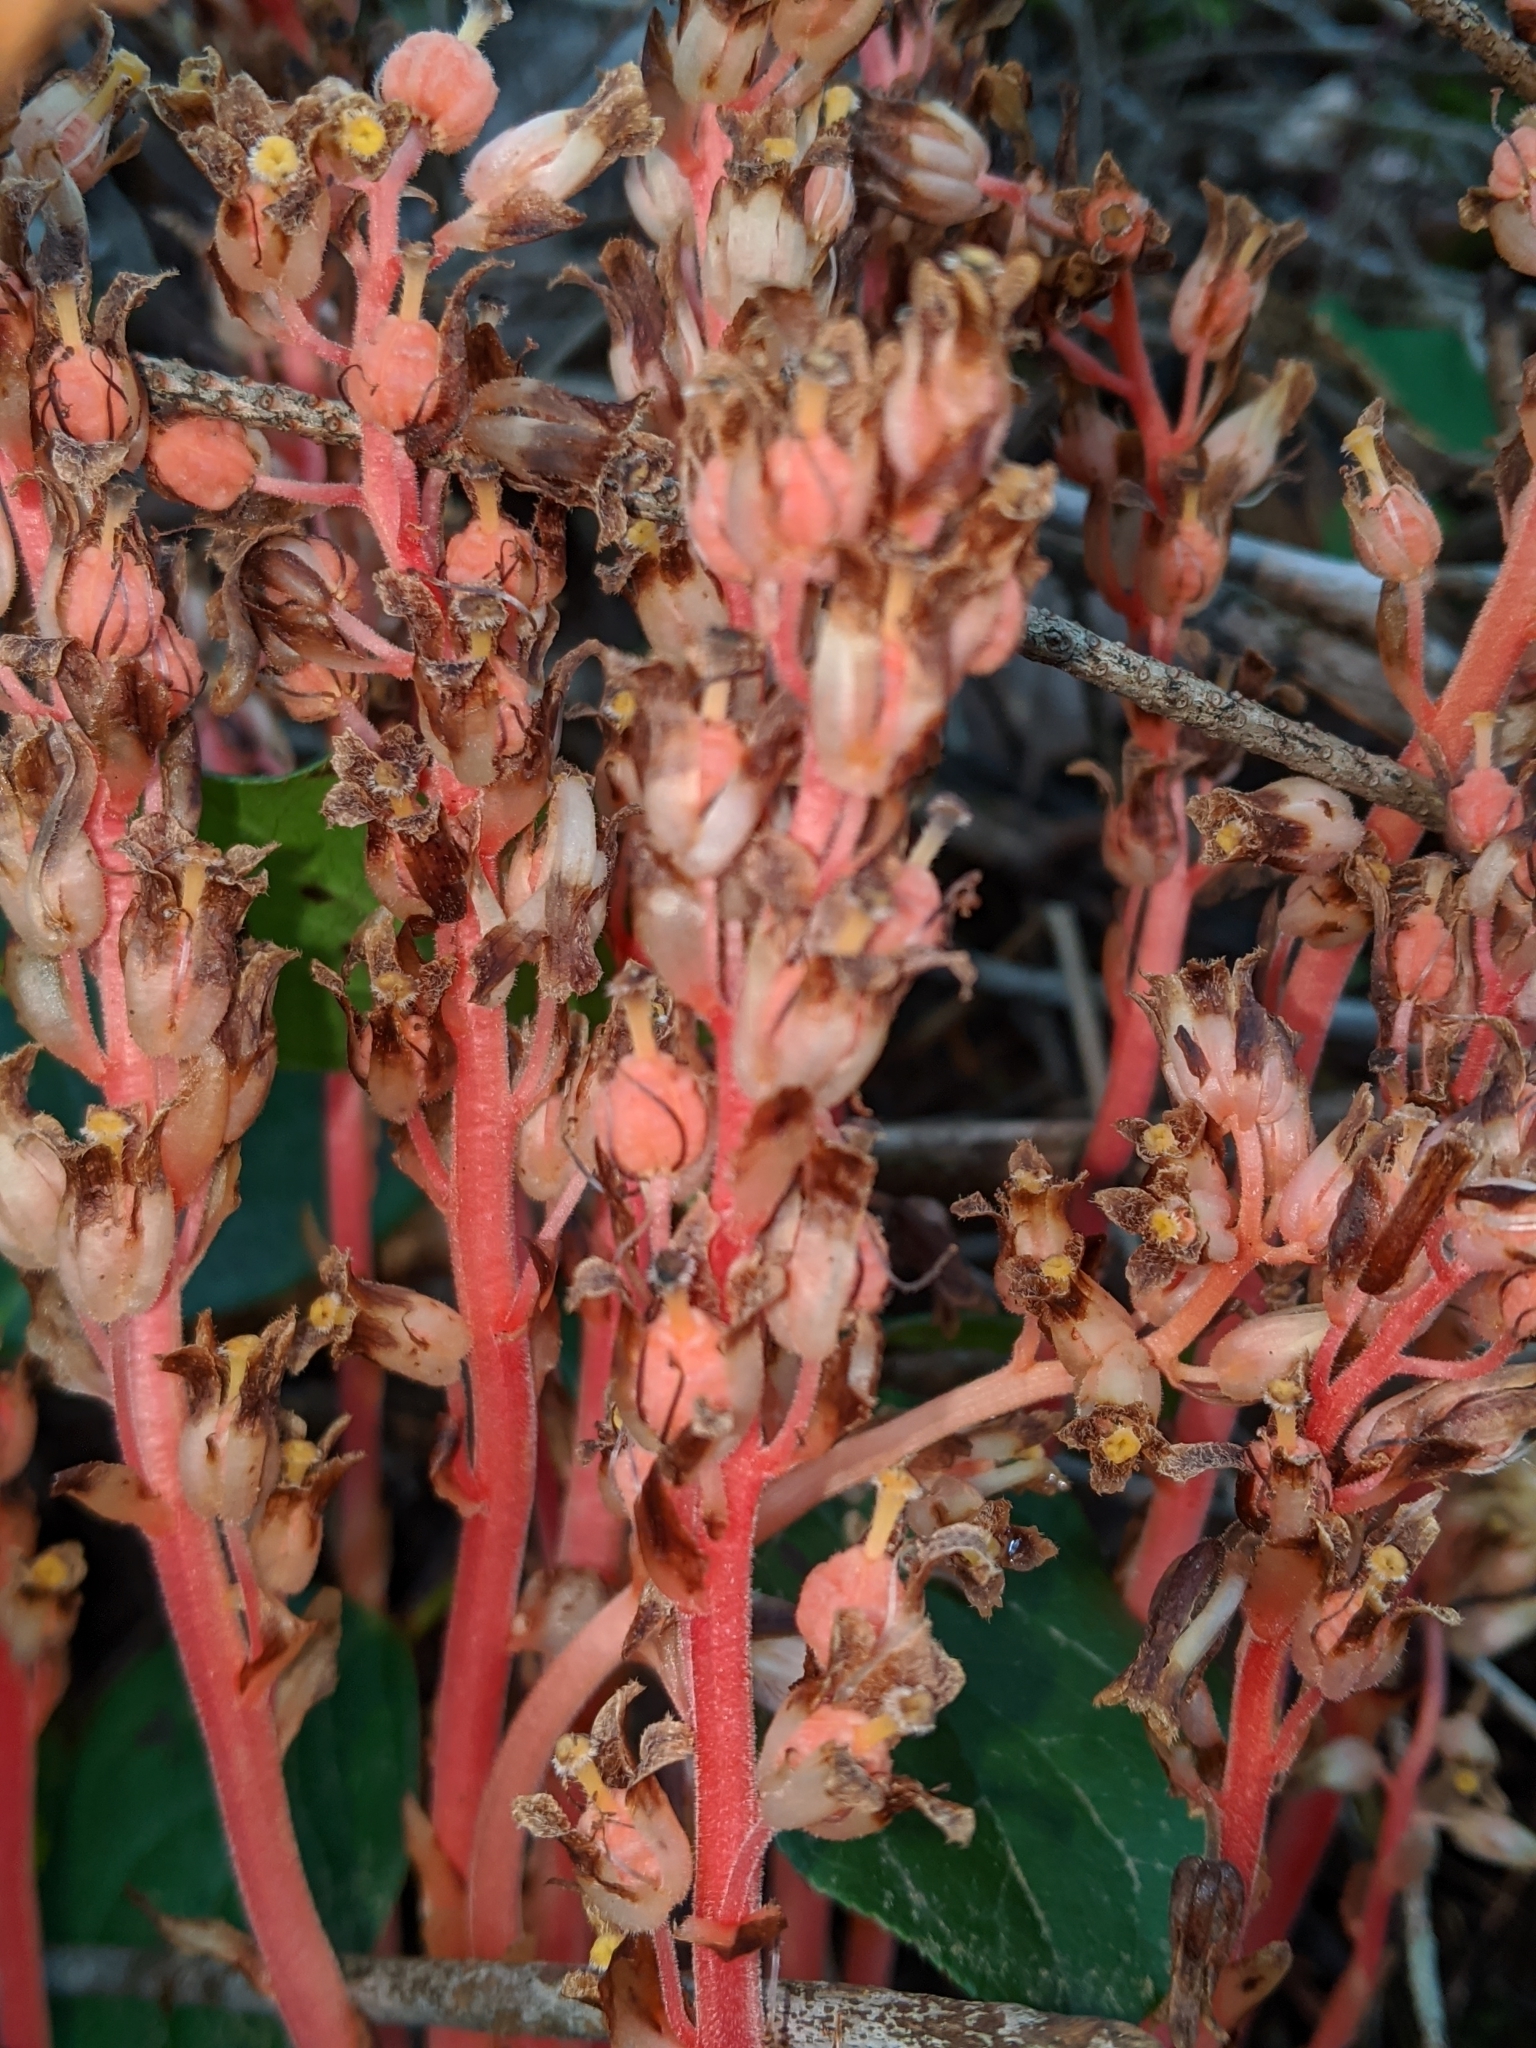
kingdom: Plantae
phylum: Tracheophyta
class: Magnoliopsida
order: Ericales
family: Ericaceae
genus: Hypopitys
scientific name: Hypopitys monotropa
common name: Yellow bird's-nest
